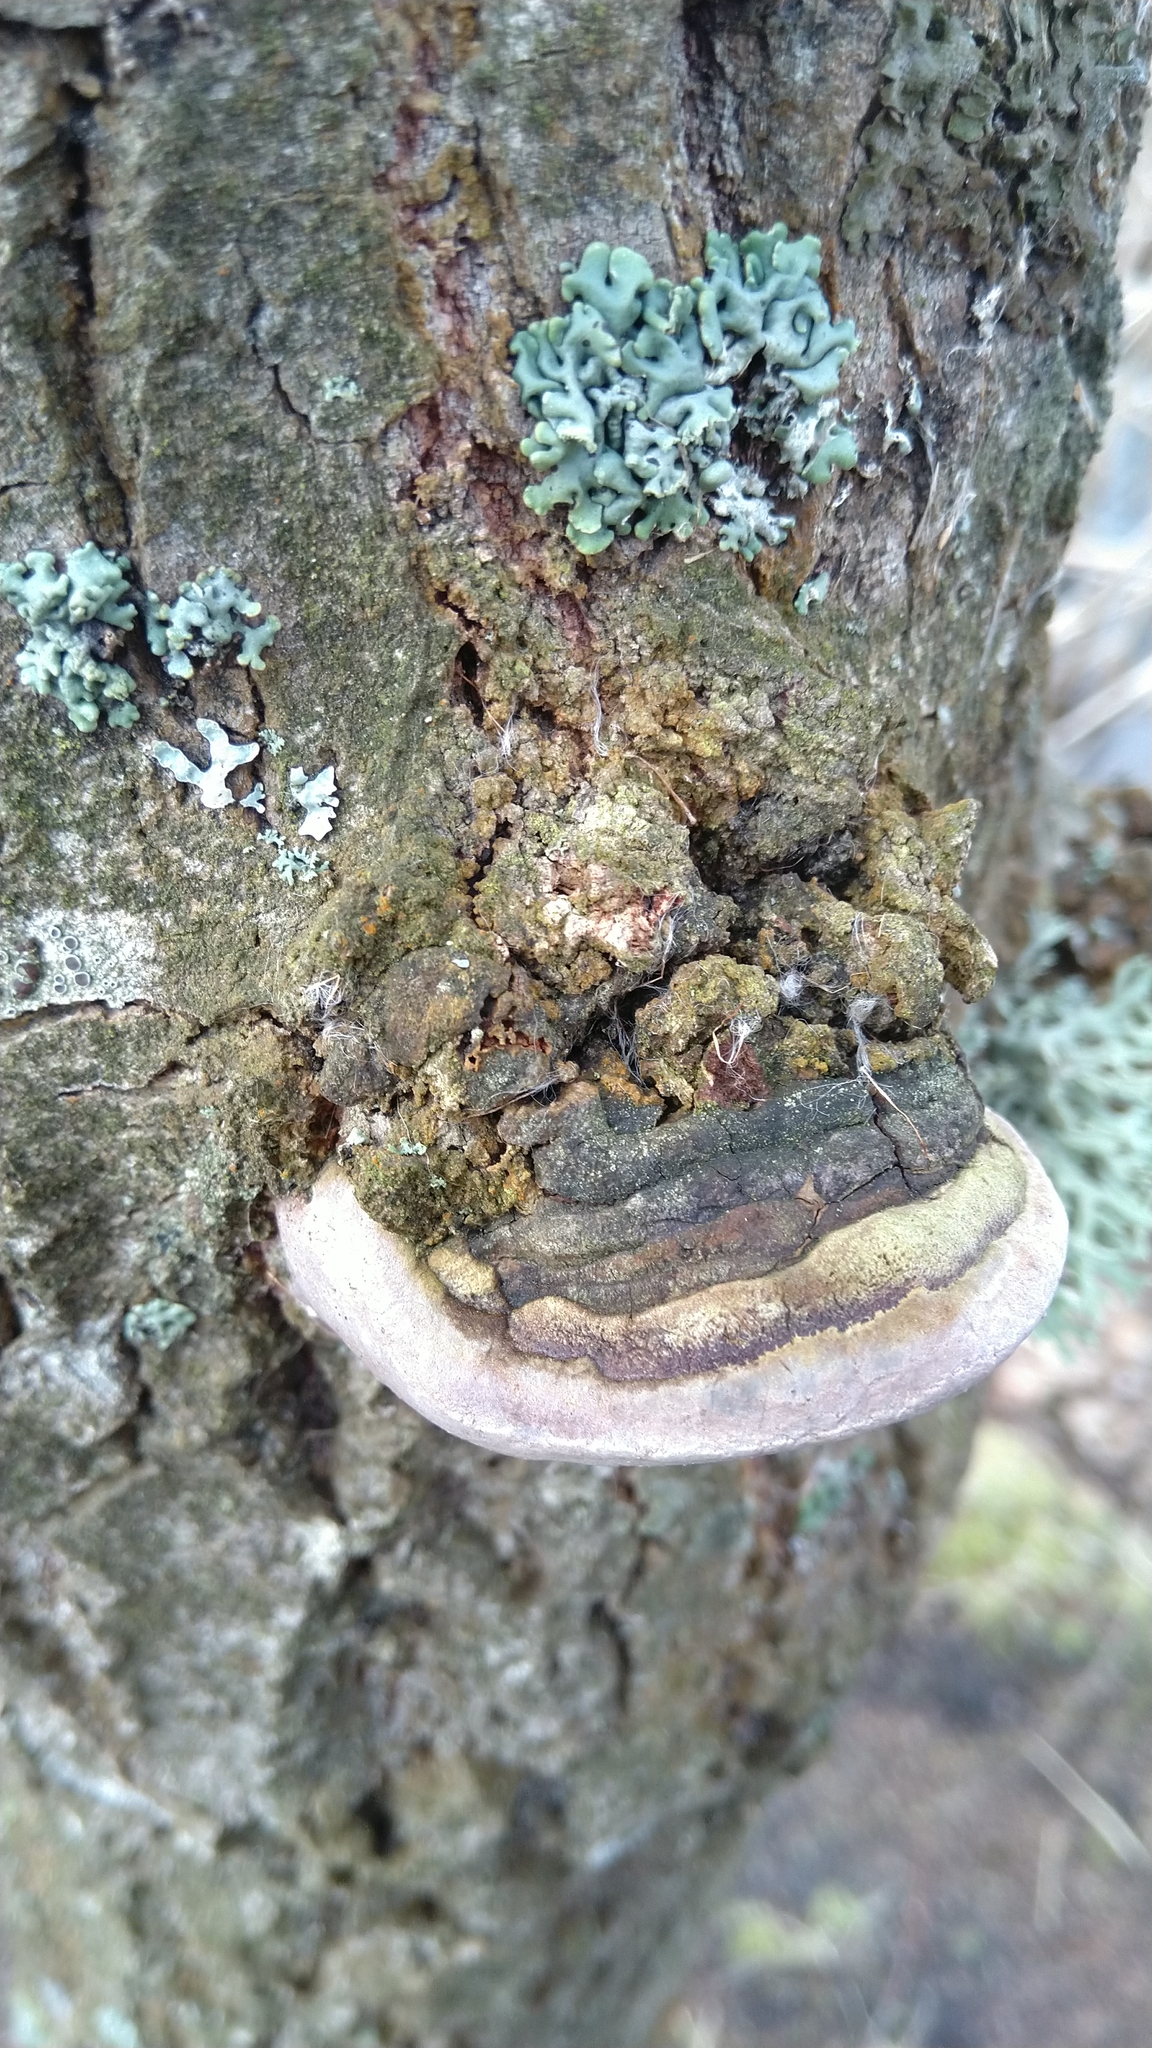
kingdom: Fungi
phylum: Basidiomycota
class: Agaricomycetes
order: Hymenochaetales
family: Hymenochaetaceae
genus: Phellinus
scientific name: Phellinus tremulae
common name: Aspen bracket
